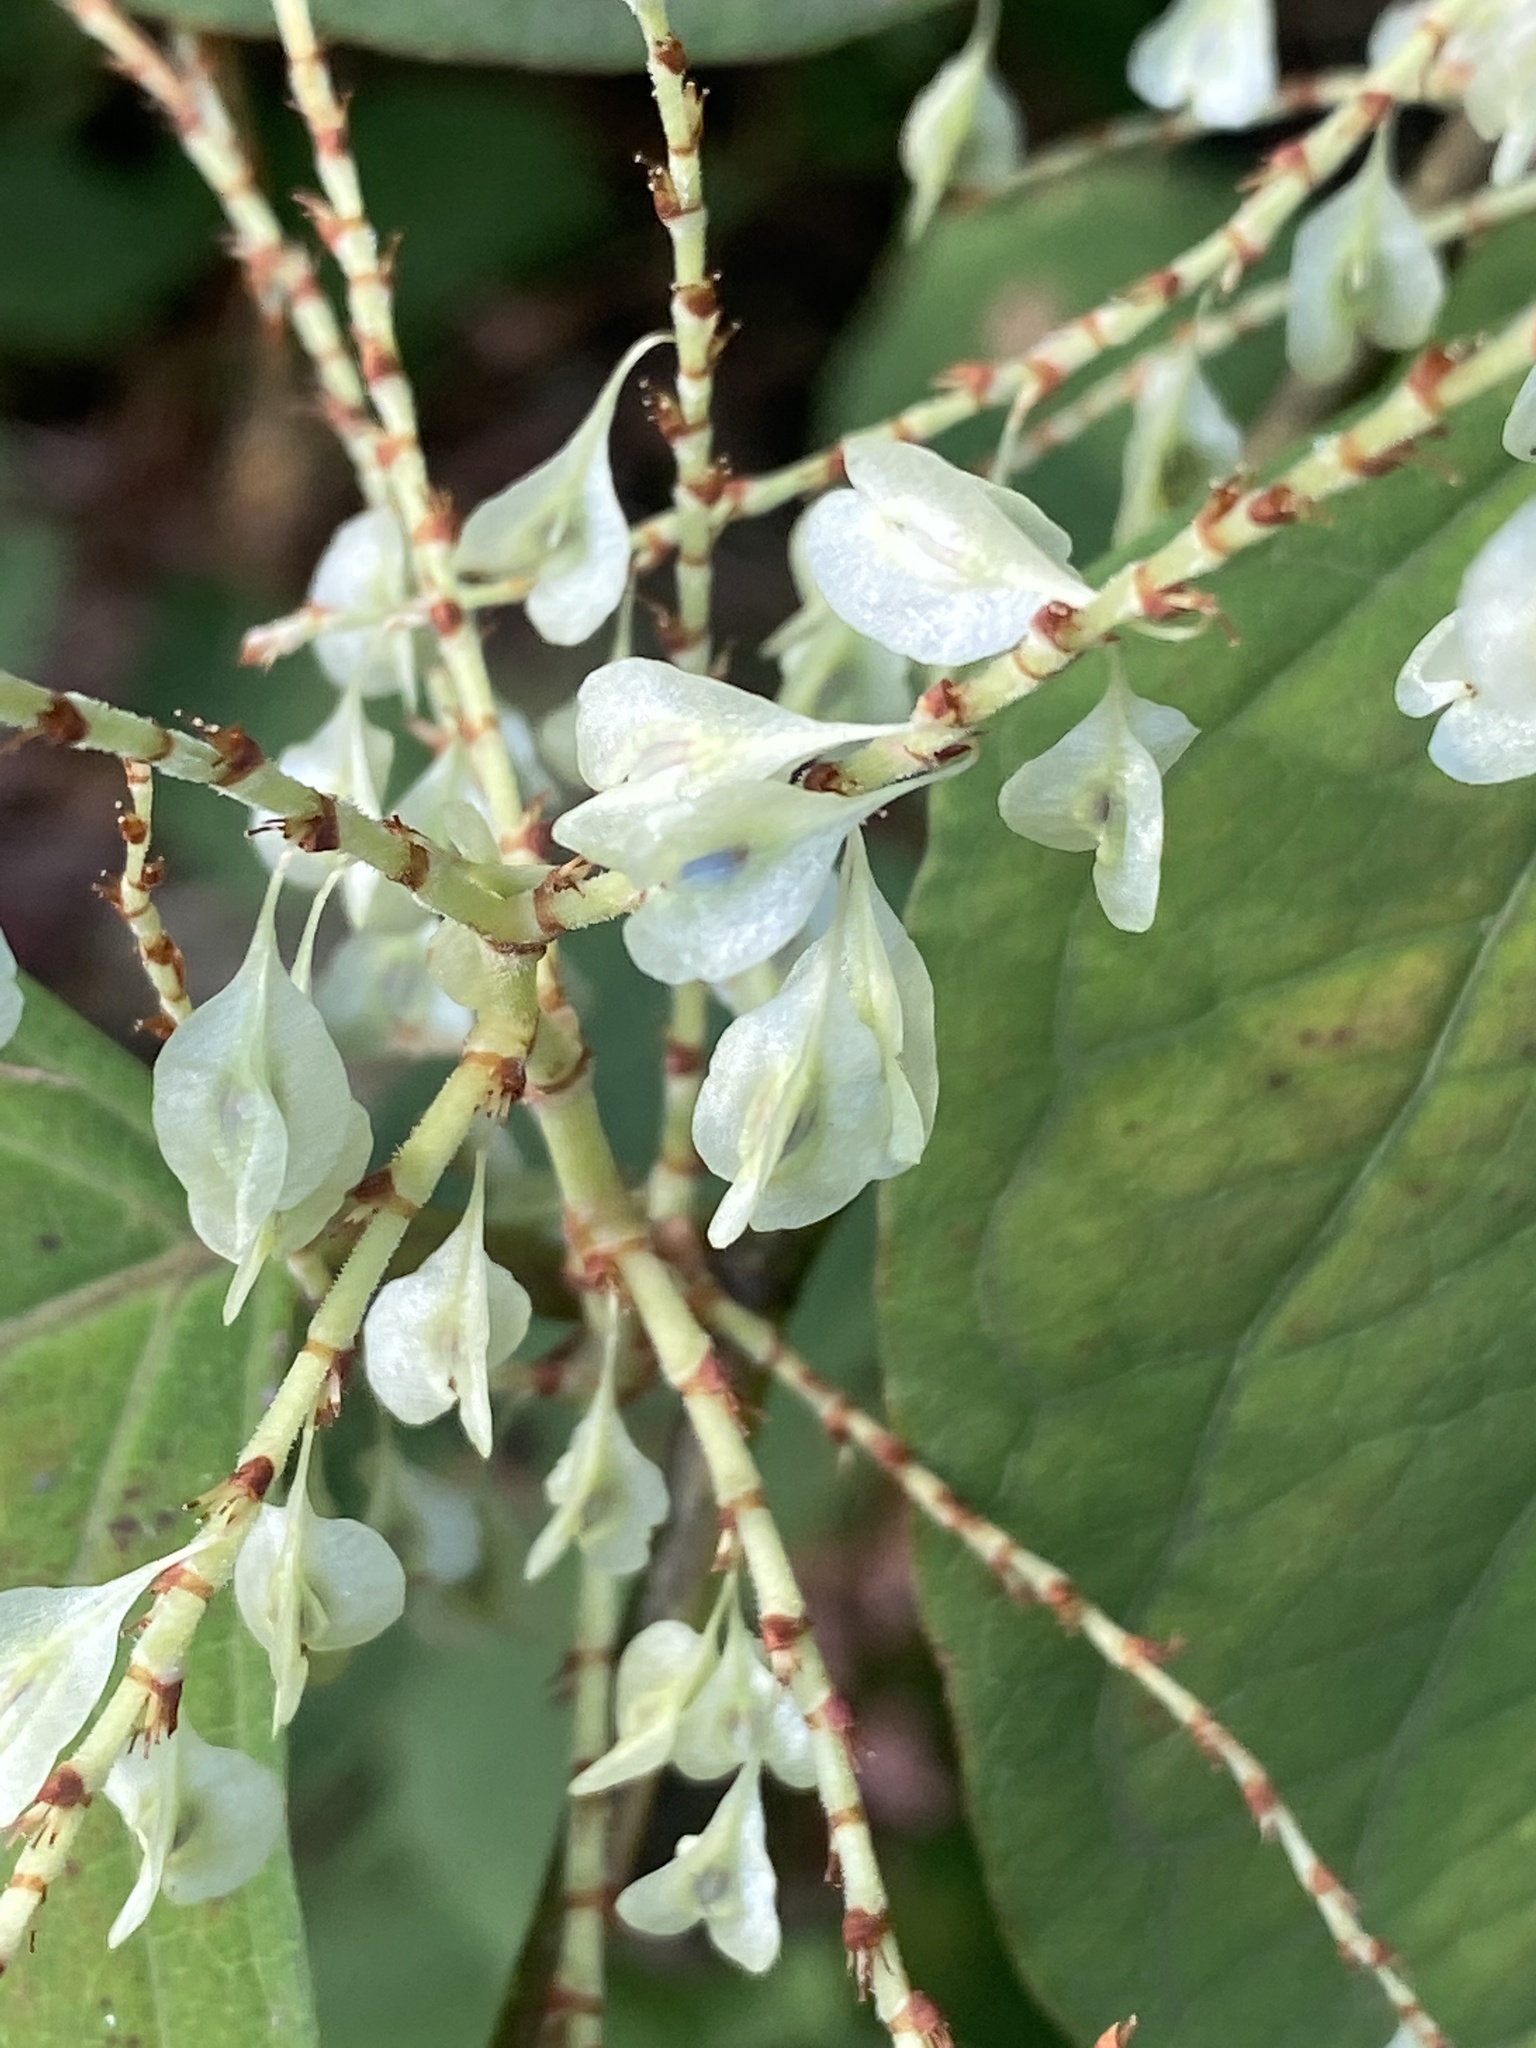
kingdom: Plantae
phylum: Tracheophyta
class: Magnoliopsida
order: Caryophyllales
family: Polygonaceae
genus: Reynoutria
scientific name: Reynoutria japonica
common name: Japanese knotweed
